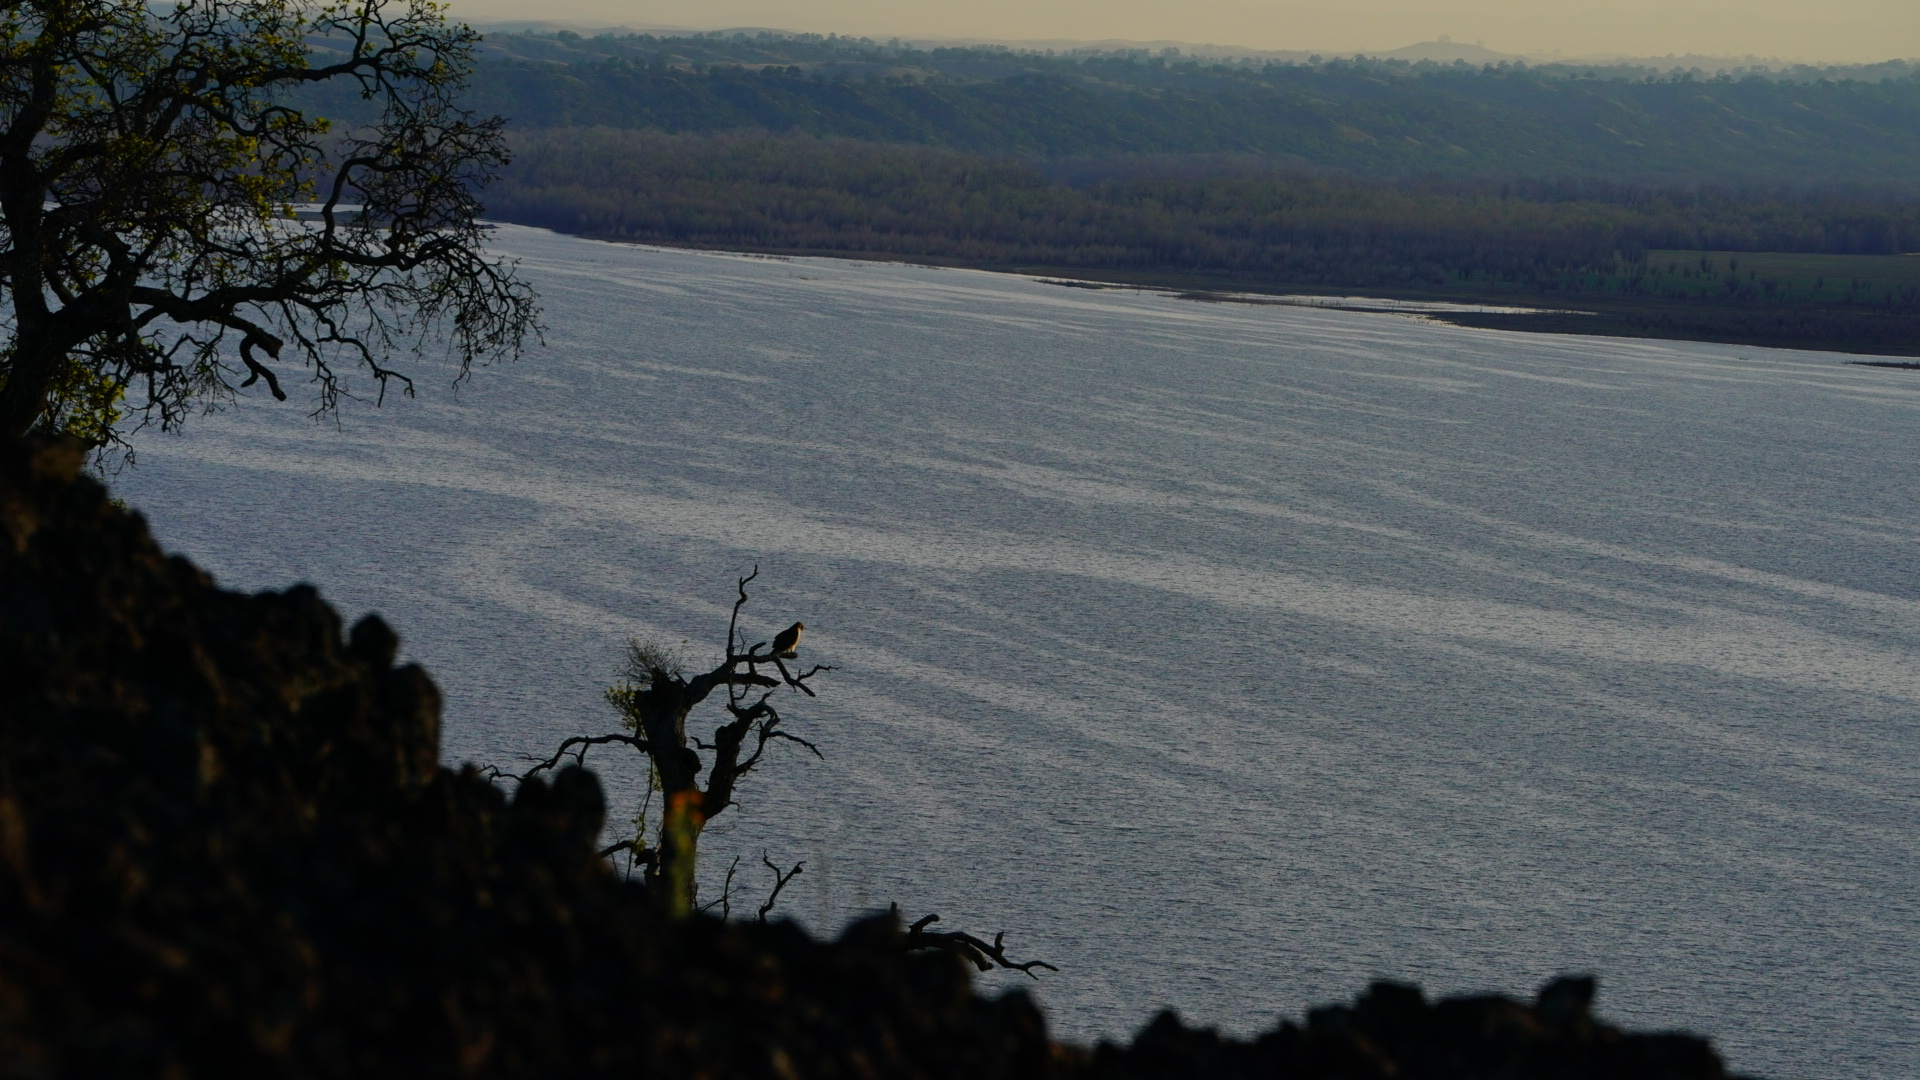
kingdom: Animalia
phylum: Chordata
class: Aves
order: Accipitriformes
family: Accipitridae
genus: Buteo
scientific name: Buteo jamaicensis
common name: Red-tailed hawk
